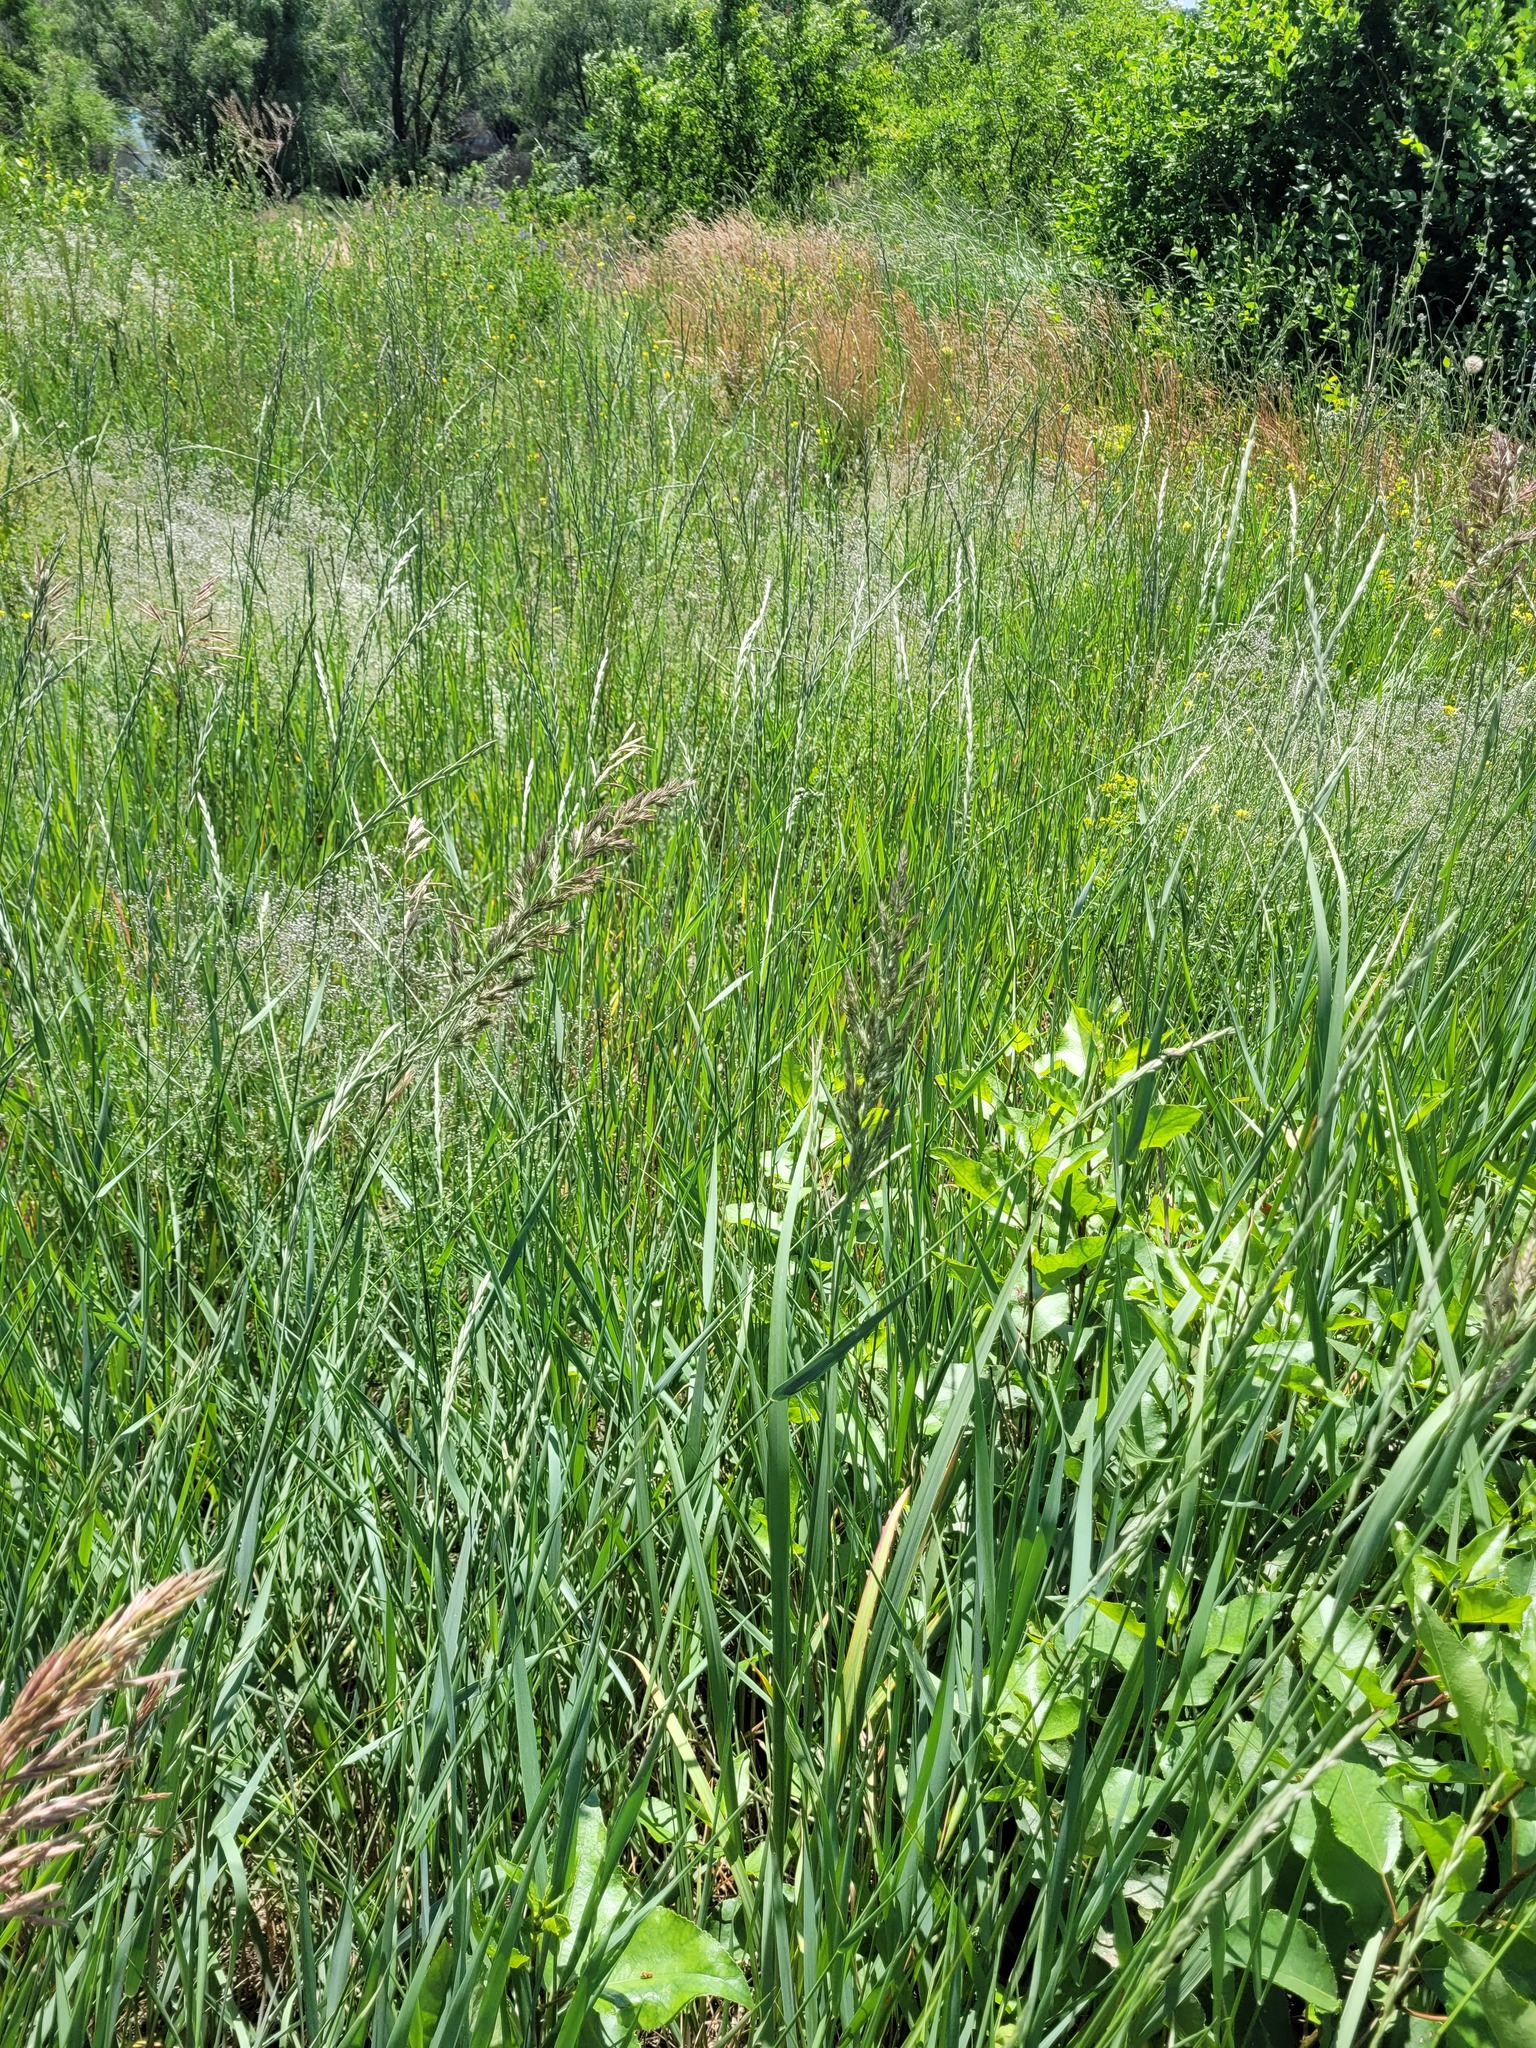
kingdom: Plantae
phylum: Tracheophyta
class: Liliopsida
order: Poales
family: Poaceae
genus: Calamagrostis
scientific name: Calamagrostis epigejos
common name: Wood small-reed
